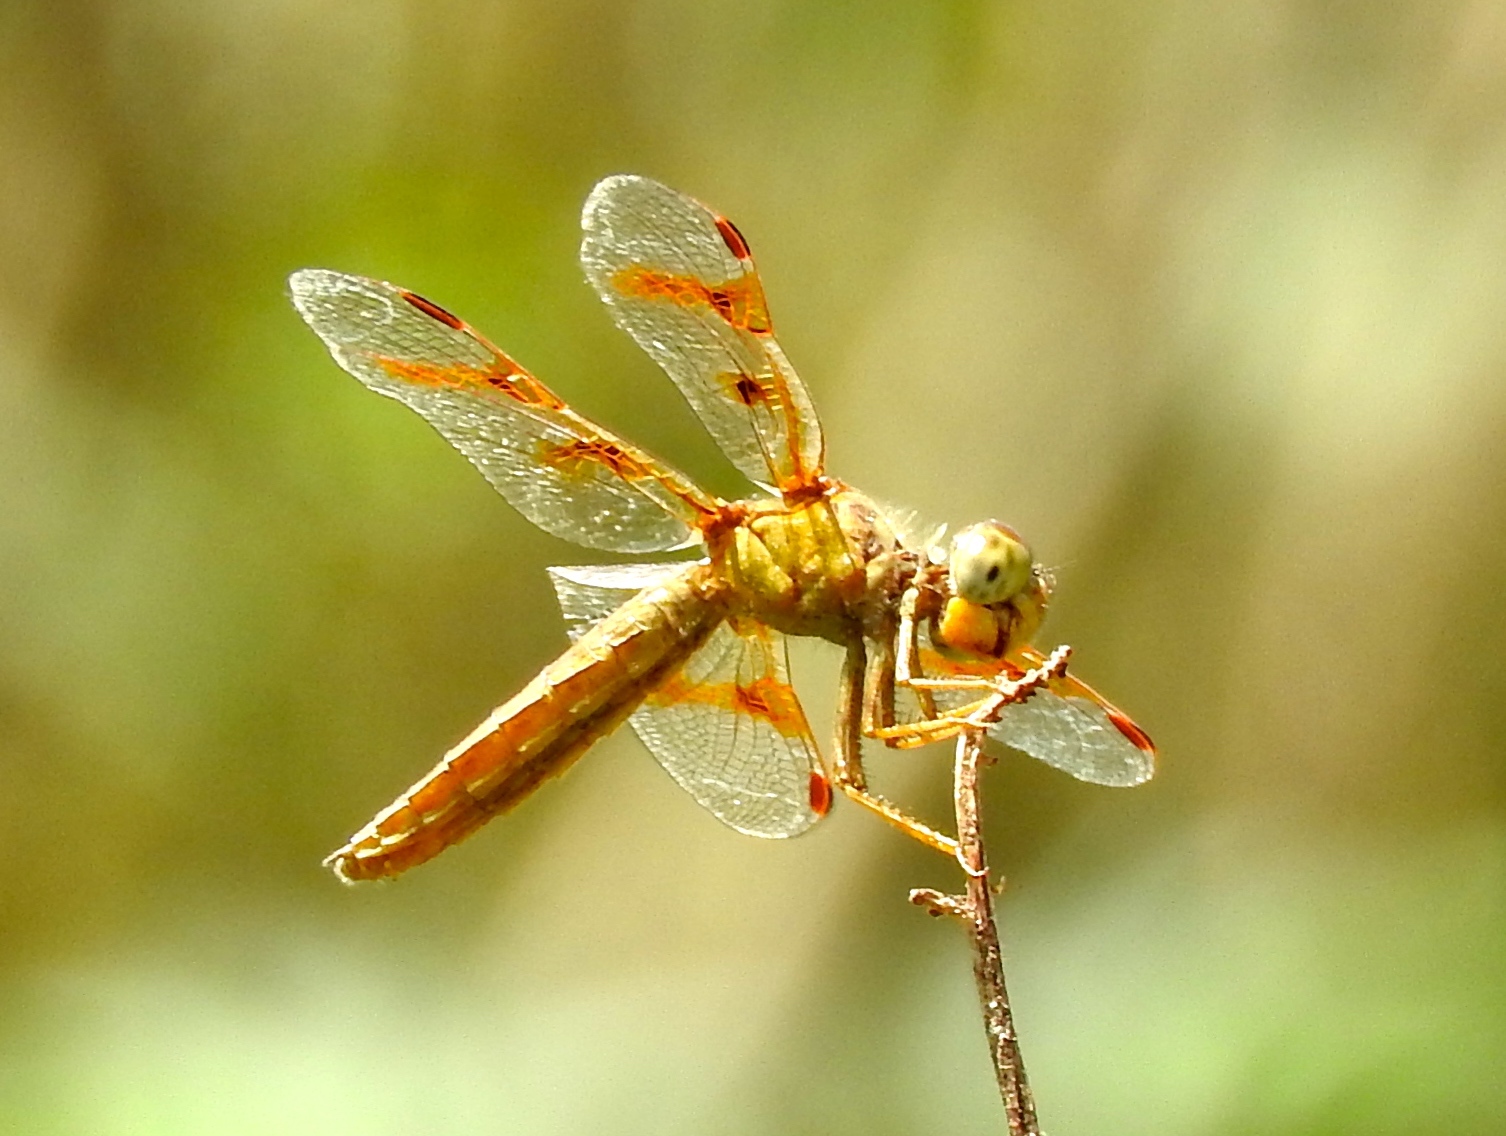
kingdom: Animalia
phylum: Arthropoda
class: Insecta
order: Odonata
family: Libellulidae
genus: Perithemis
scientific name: Perithemis
